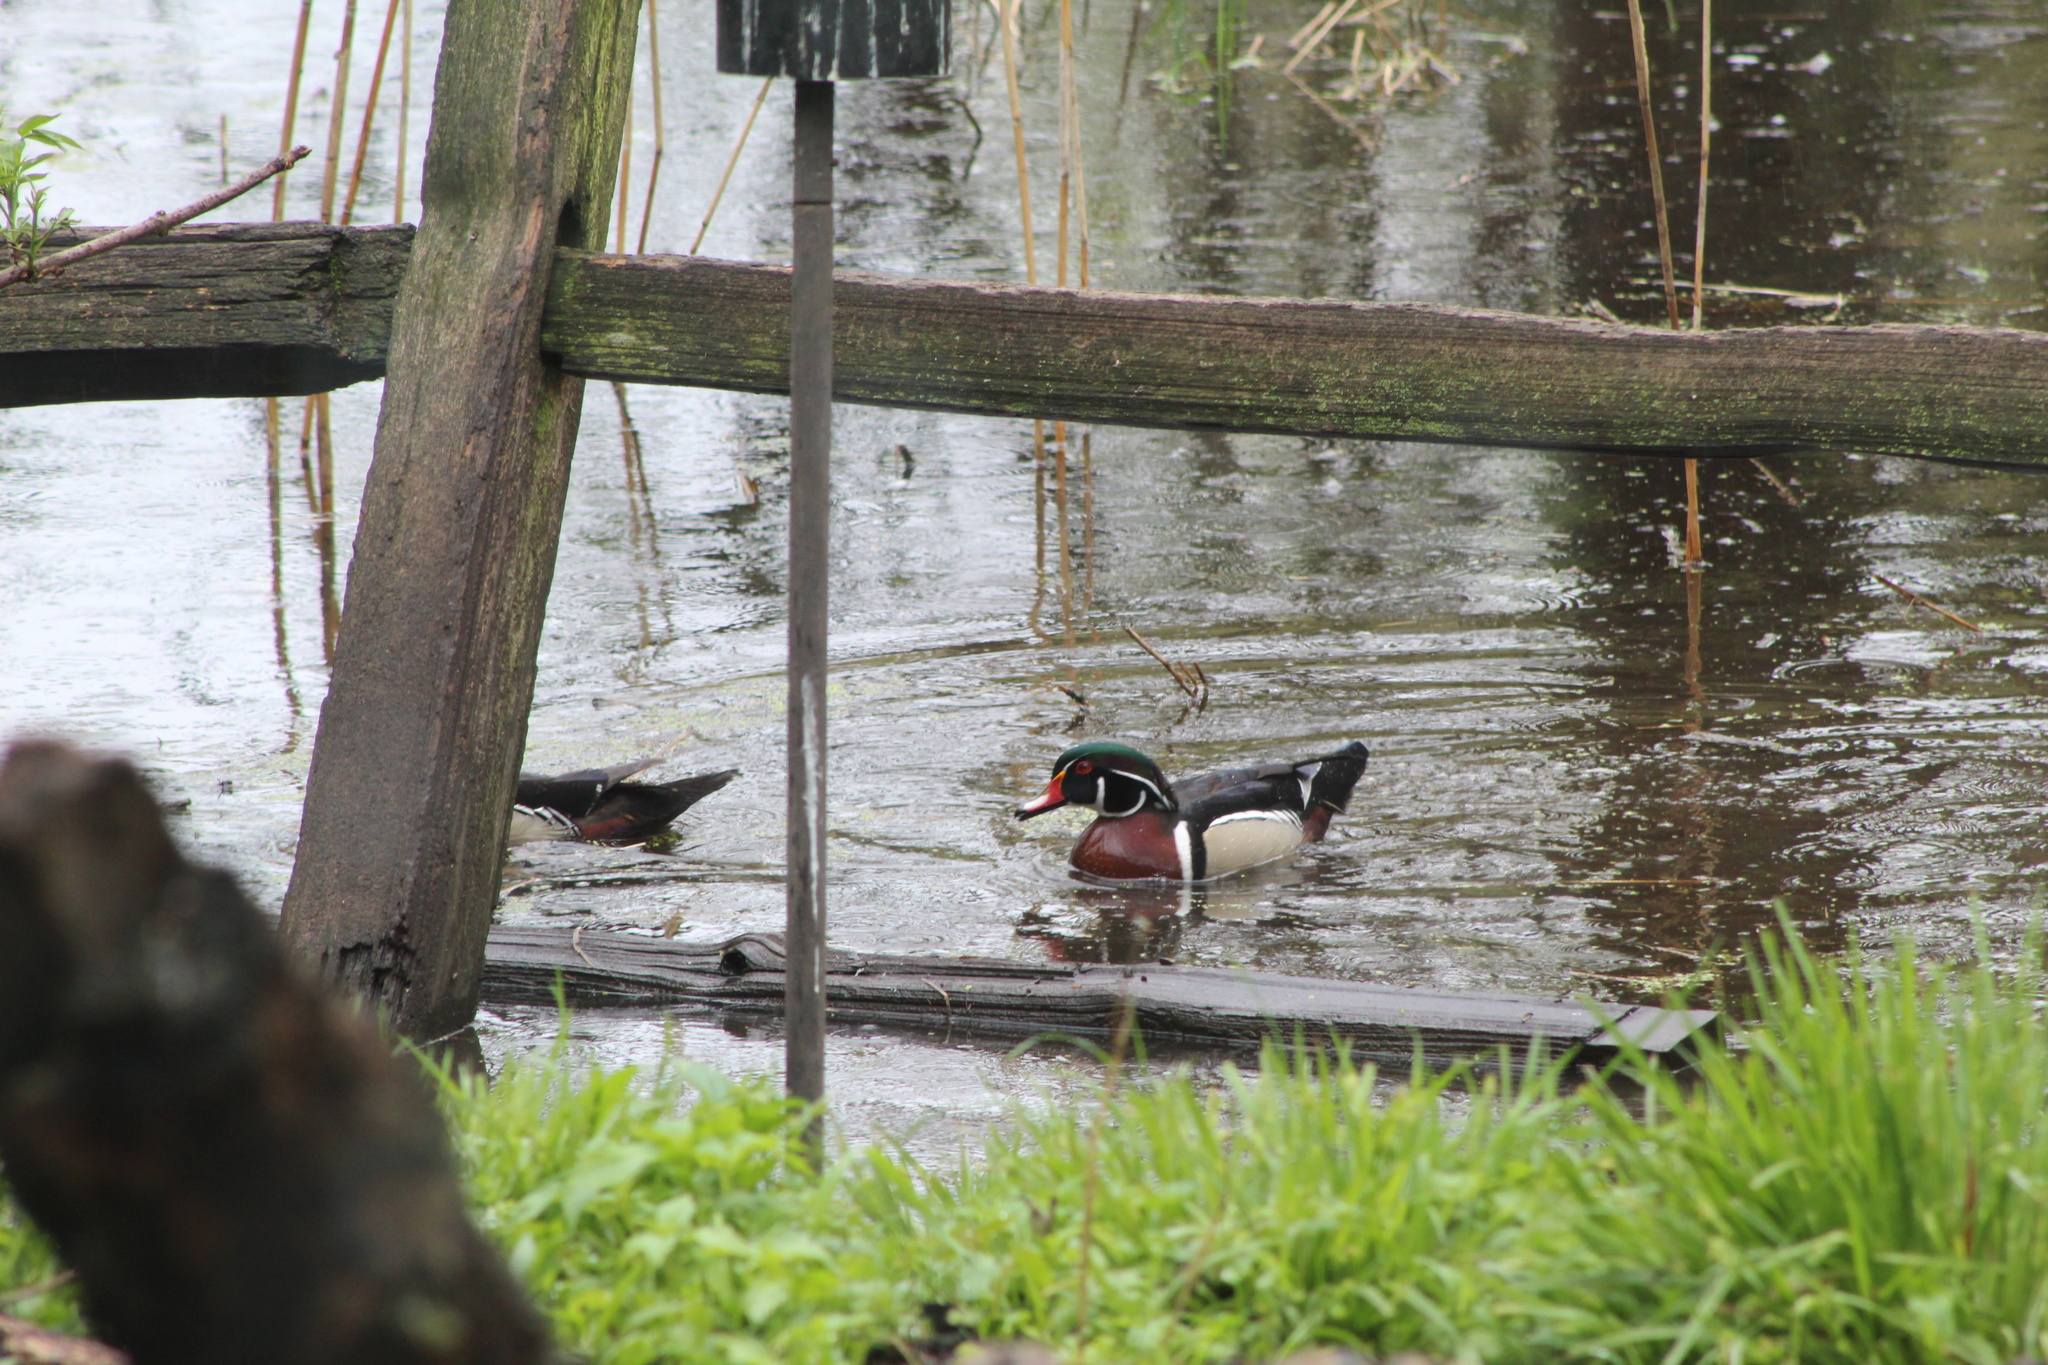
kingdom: Animalia
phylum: Chordata
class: Aves
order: Anseriformes
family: Anatidae
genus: Aix
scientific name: Aix sponsa
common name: Wood duck
